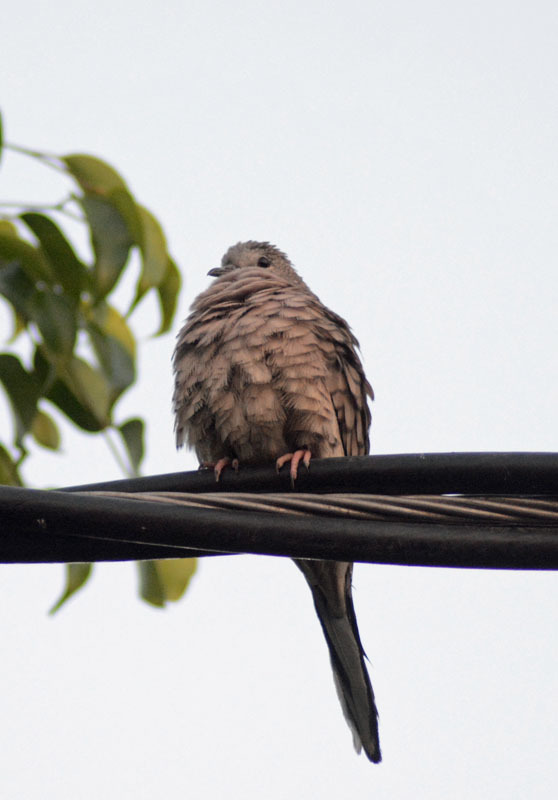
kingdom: Animalia
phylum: Chordata
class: Aves
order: Columbiformes
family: Columbidae
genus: Columbina
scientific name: Columbina inca
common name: Inca dove
